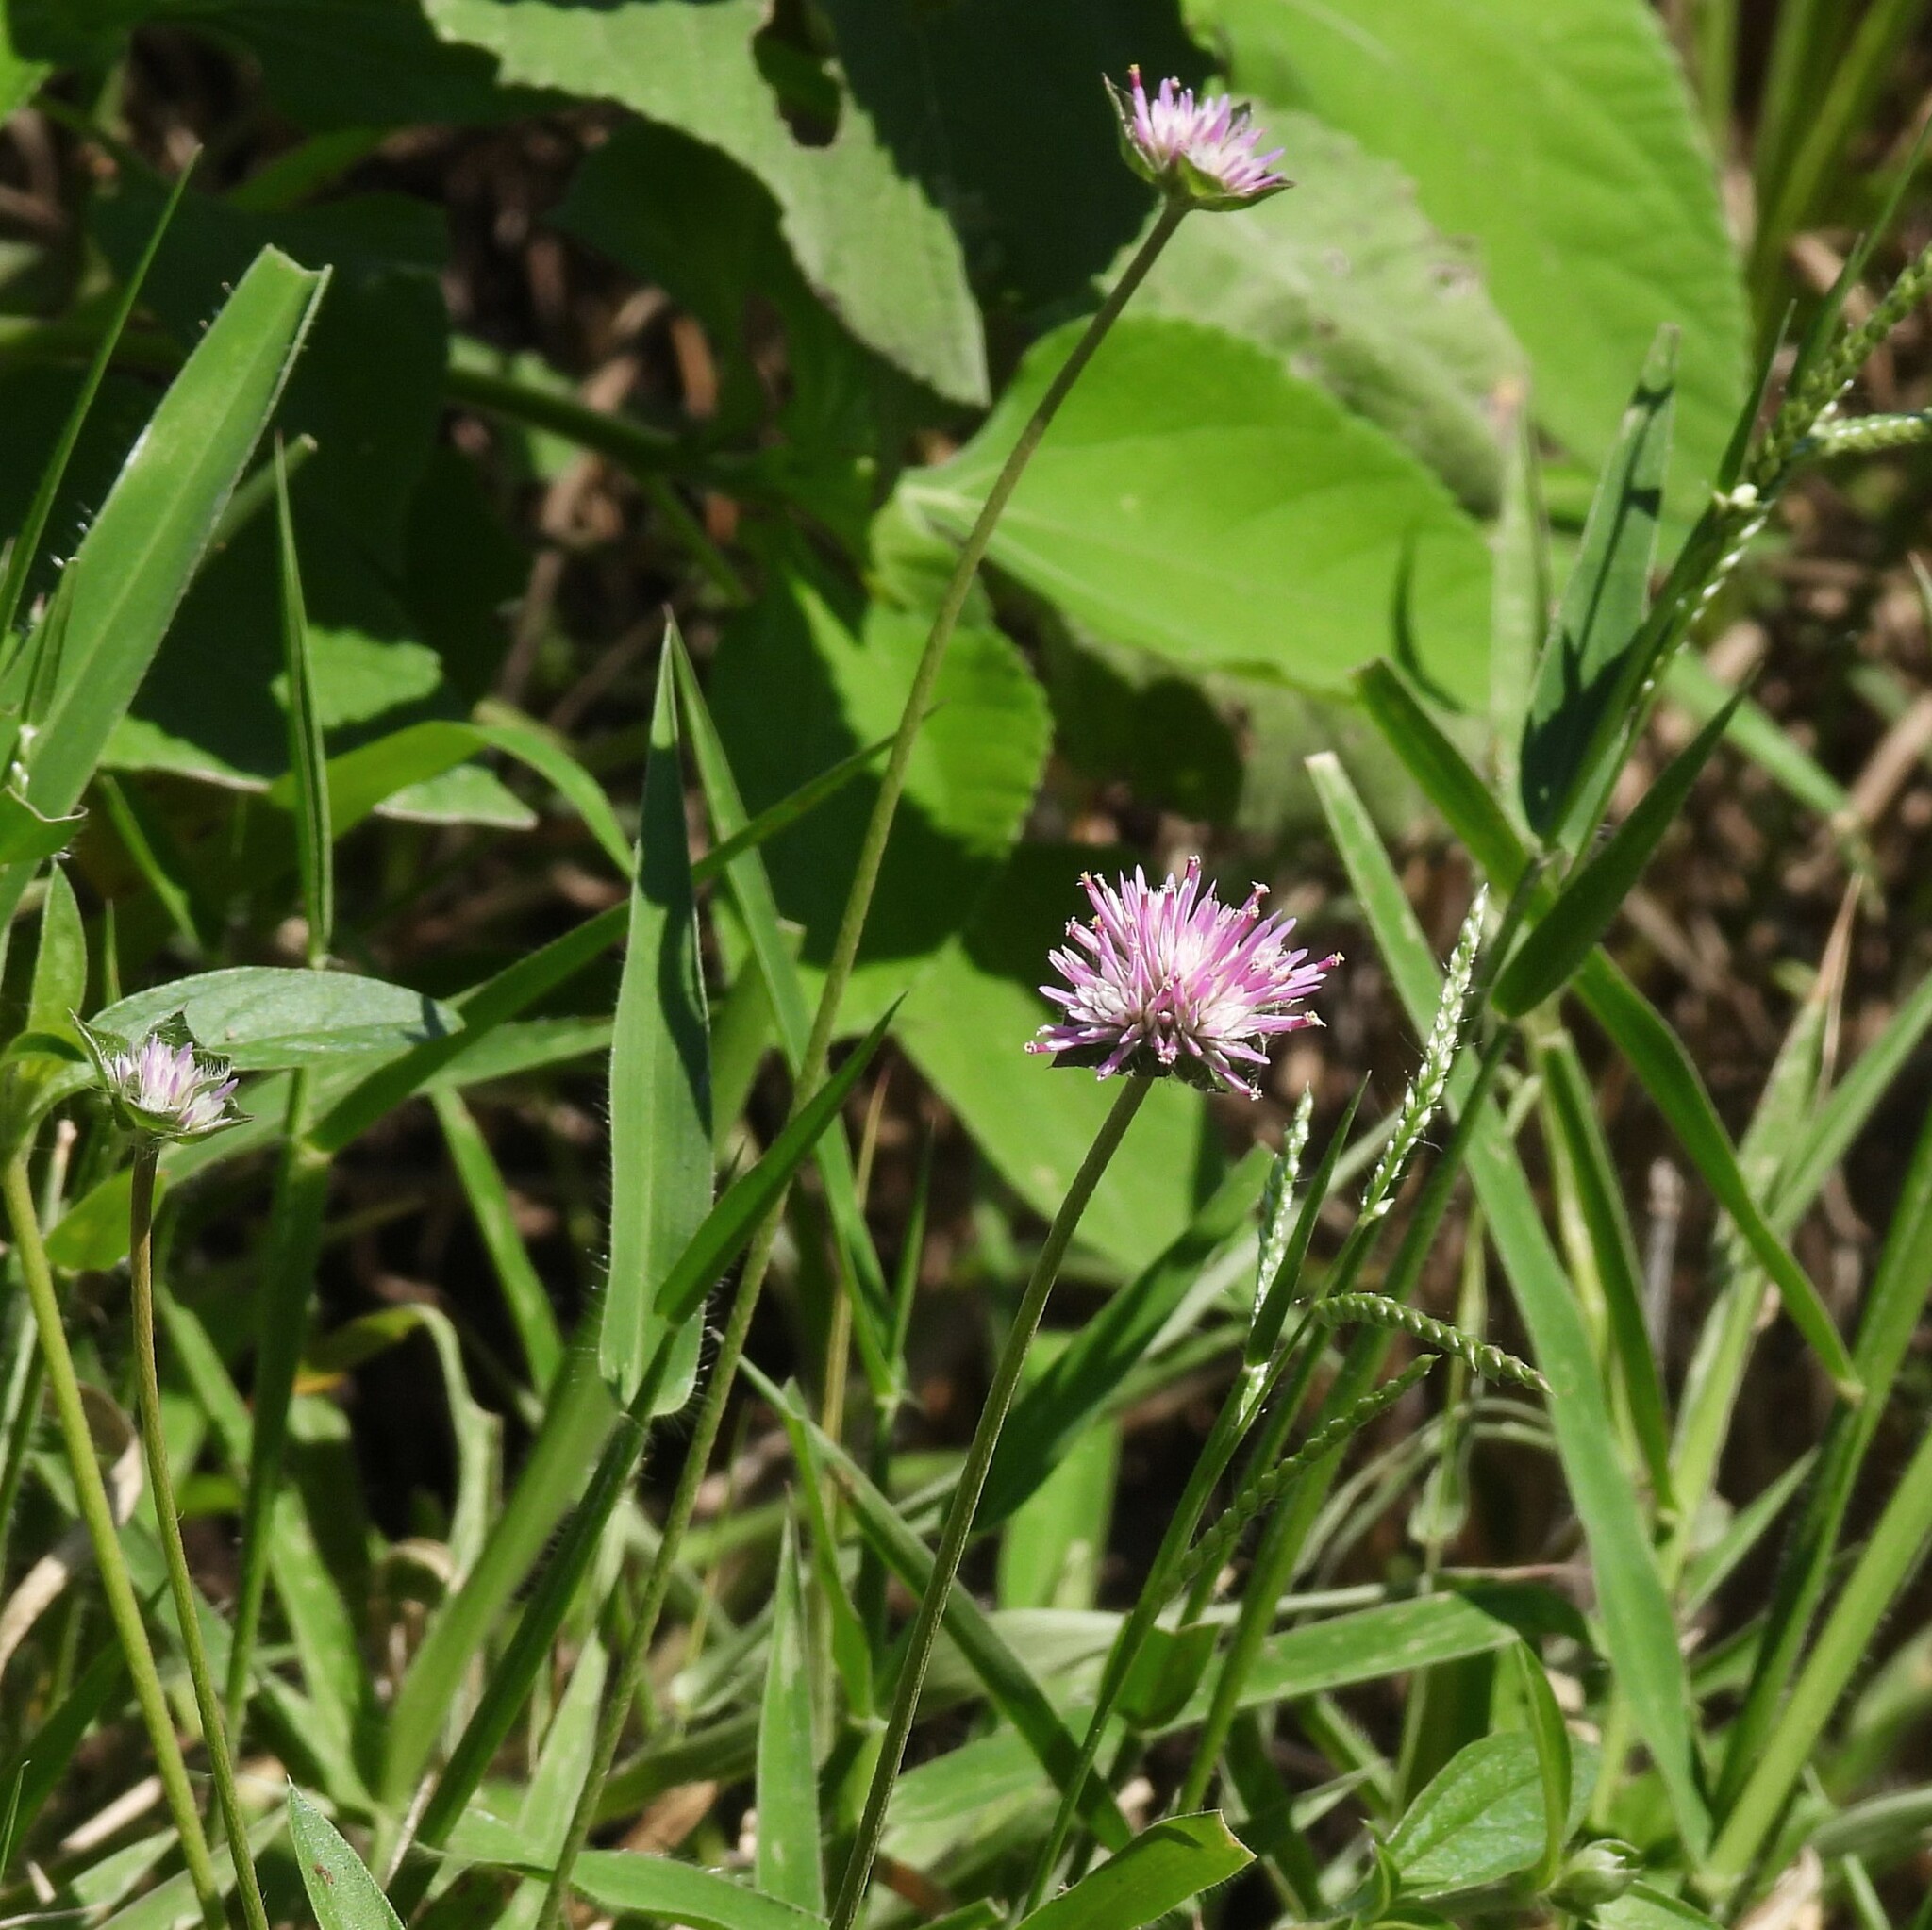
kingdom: Plantae
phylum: Tracheophyta
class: Magnoliopsida
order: Caryophyllales
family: Amaranthaceae
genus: Gomphrena
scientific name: Gomphrena
